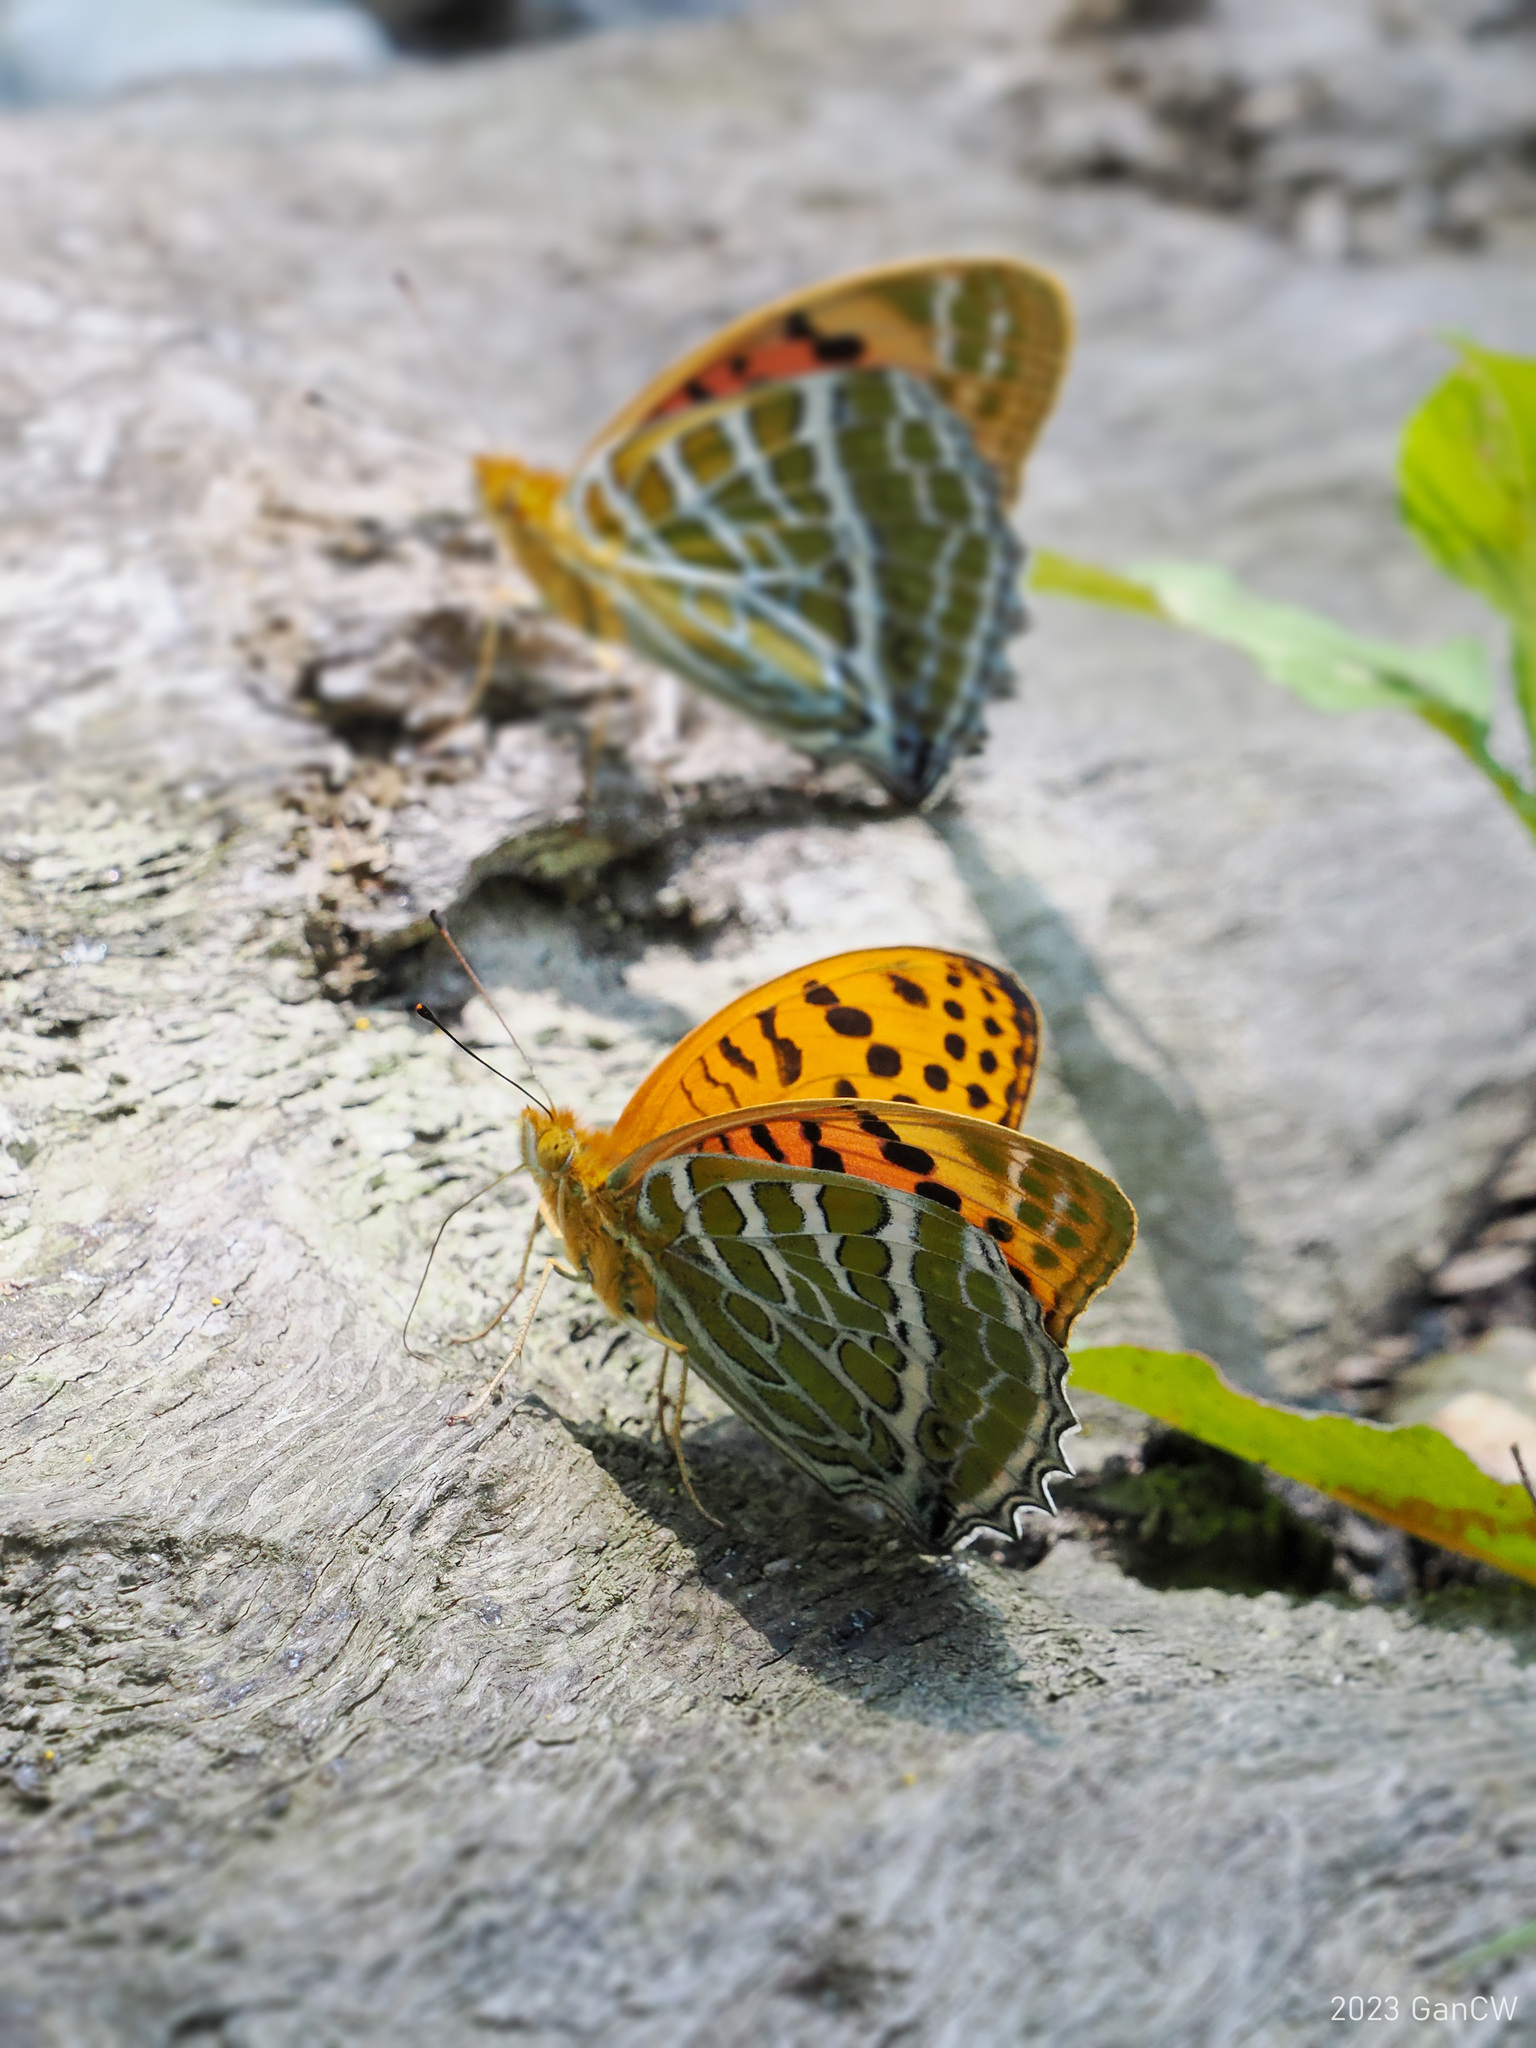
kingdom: Animalia
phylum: Arthropoda
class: Insecta
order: Lepidoptera
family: Nymphalidae
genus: Childrena
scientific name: Childrena childreni
